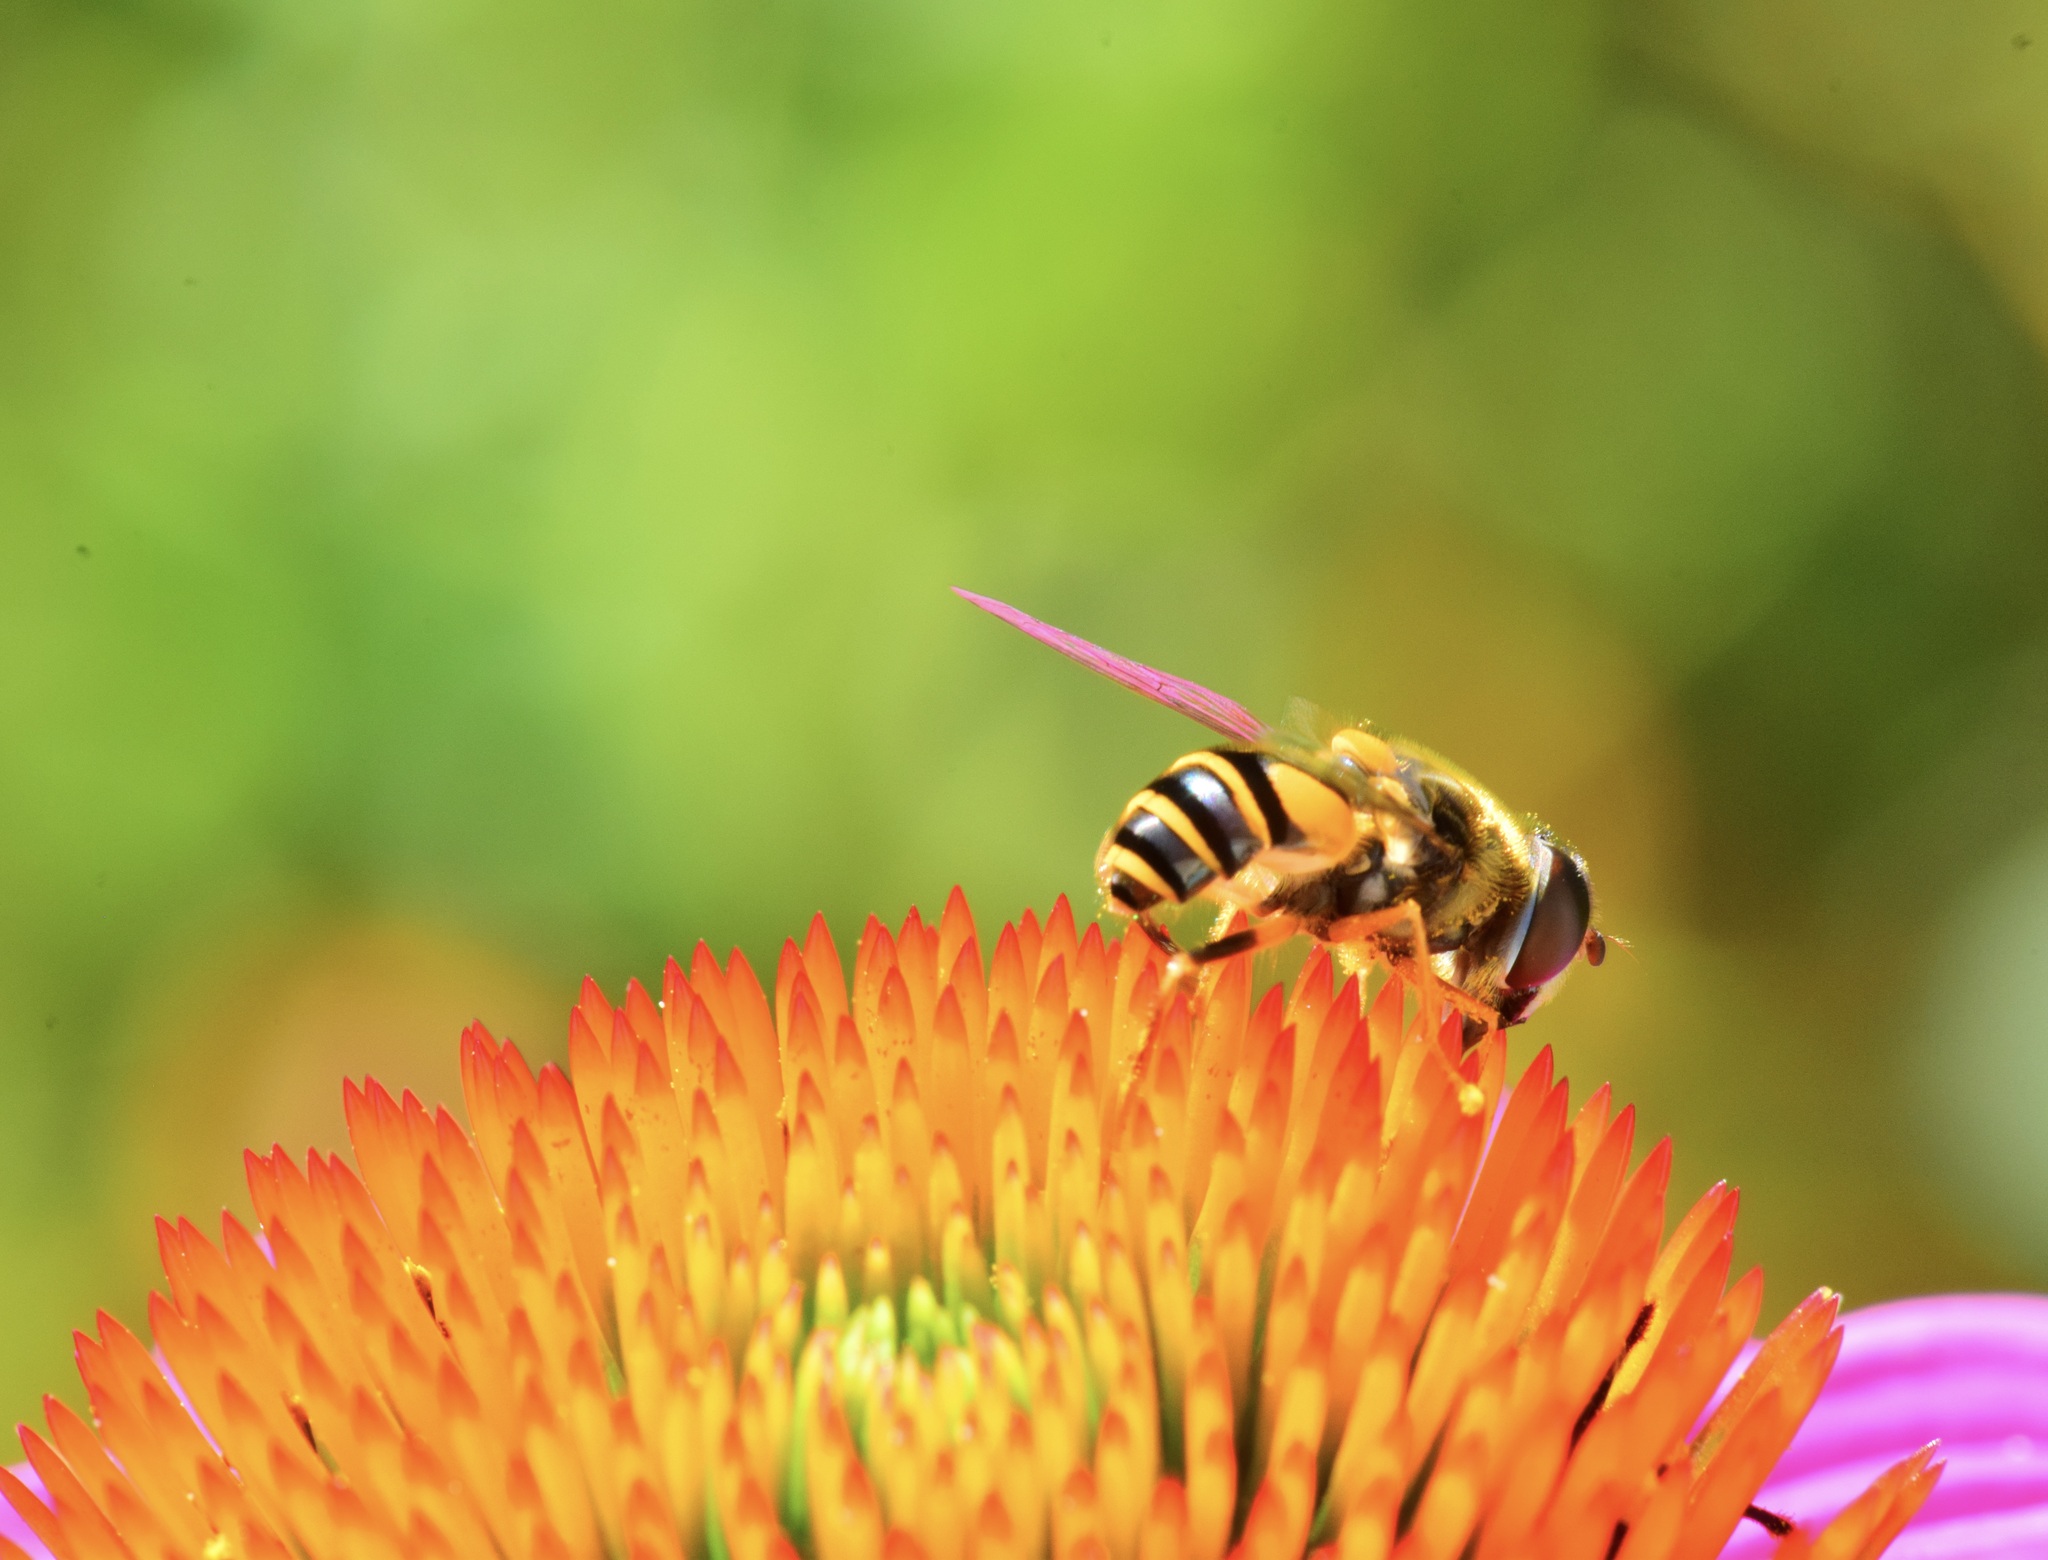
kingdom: Animalia
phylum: Arthropoda
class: Insecta
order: Diptera
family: Syrphidae
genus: Eristalis
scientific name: Eristalis transversa
